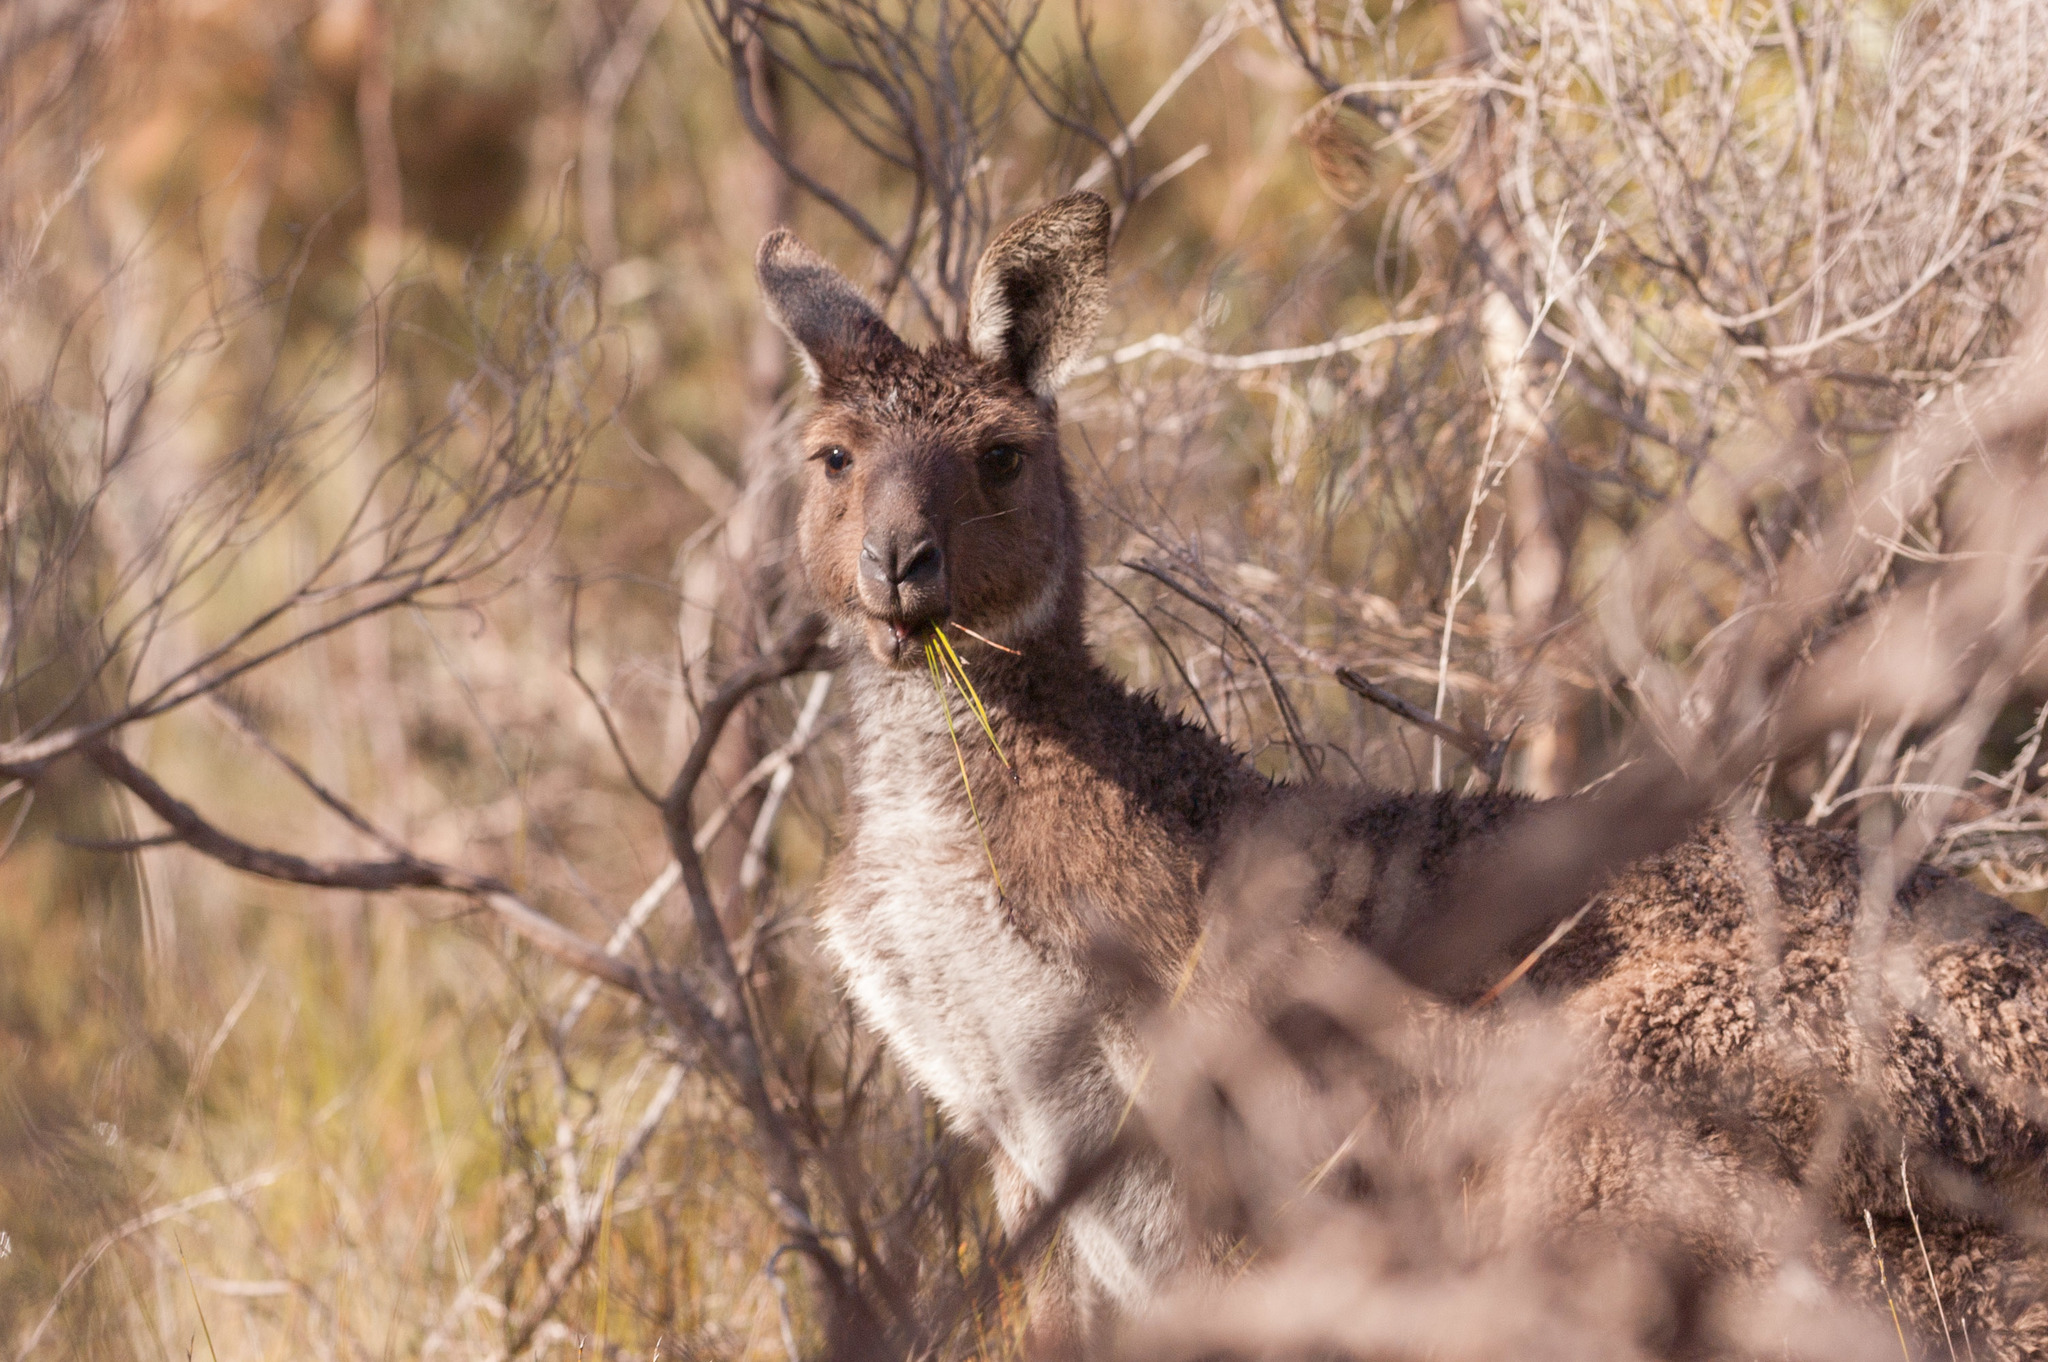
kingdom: Animalia
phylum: Chordata
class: Mammalia
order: Diprotodontia
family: Macropodidae
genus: Macropus
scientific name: Macropus fuliginosus
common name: Western grey kangaroo
